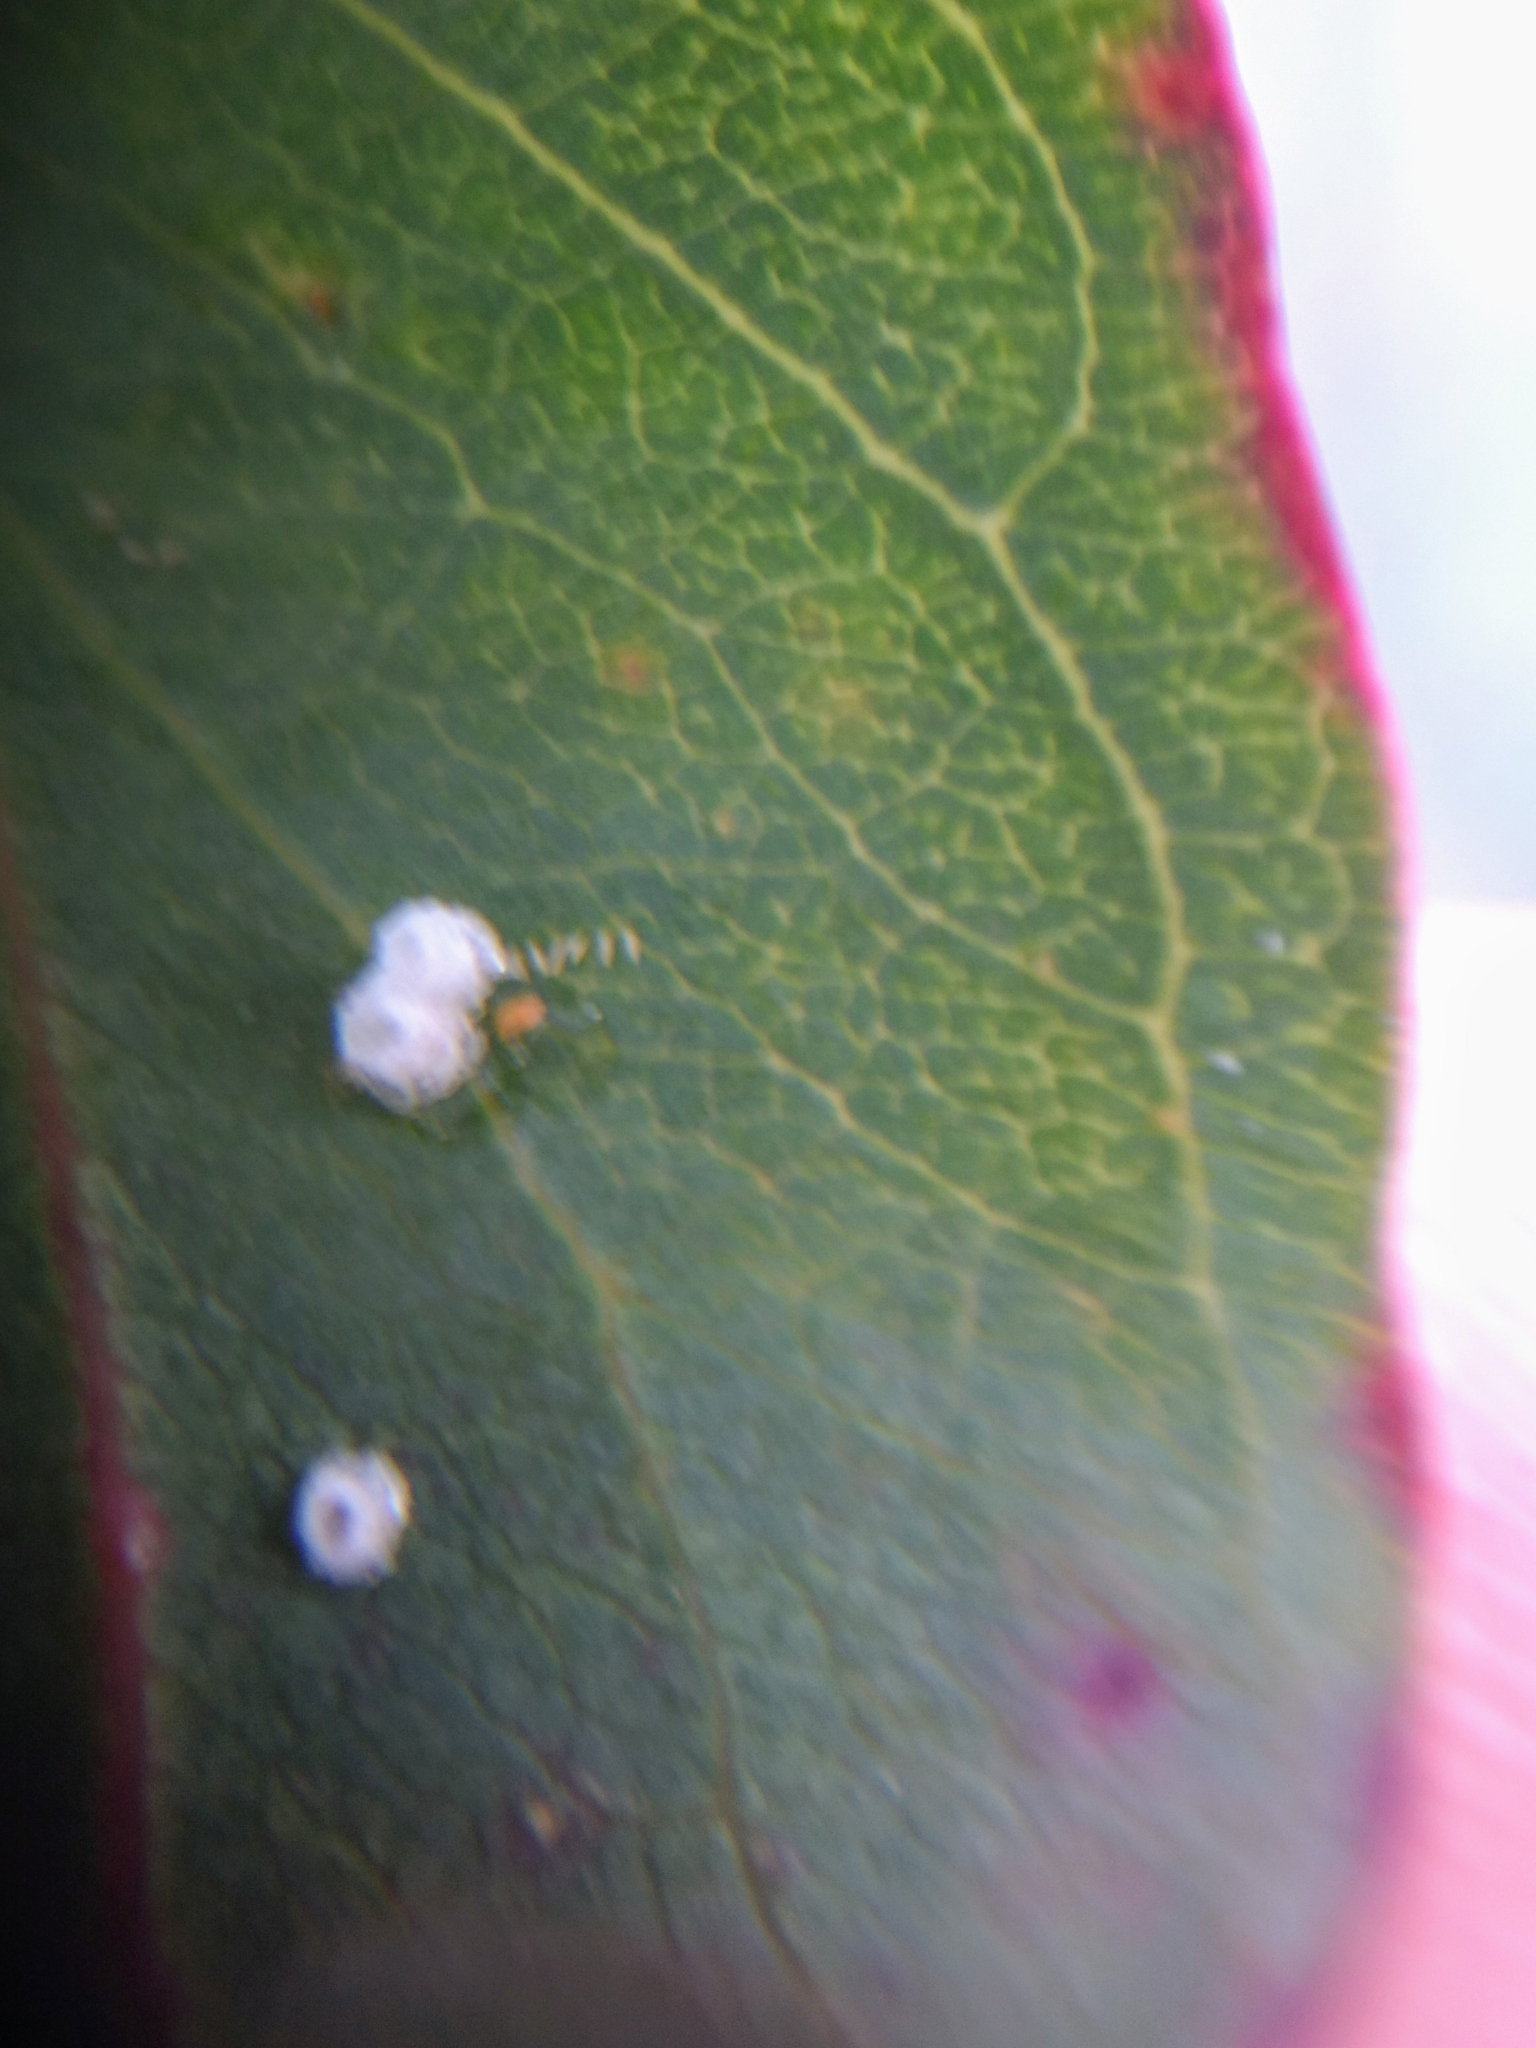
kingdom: Animalia
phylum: Arthropoda
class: Insecta
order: Hemiptera
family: Aphalaridae
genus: Glycaspis
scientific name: Glycaspis brimblecombei
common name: Red gum lerp psyllid
